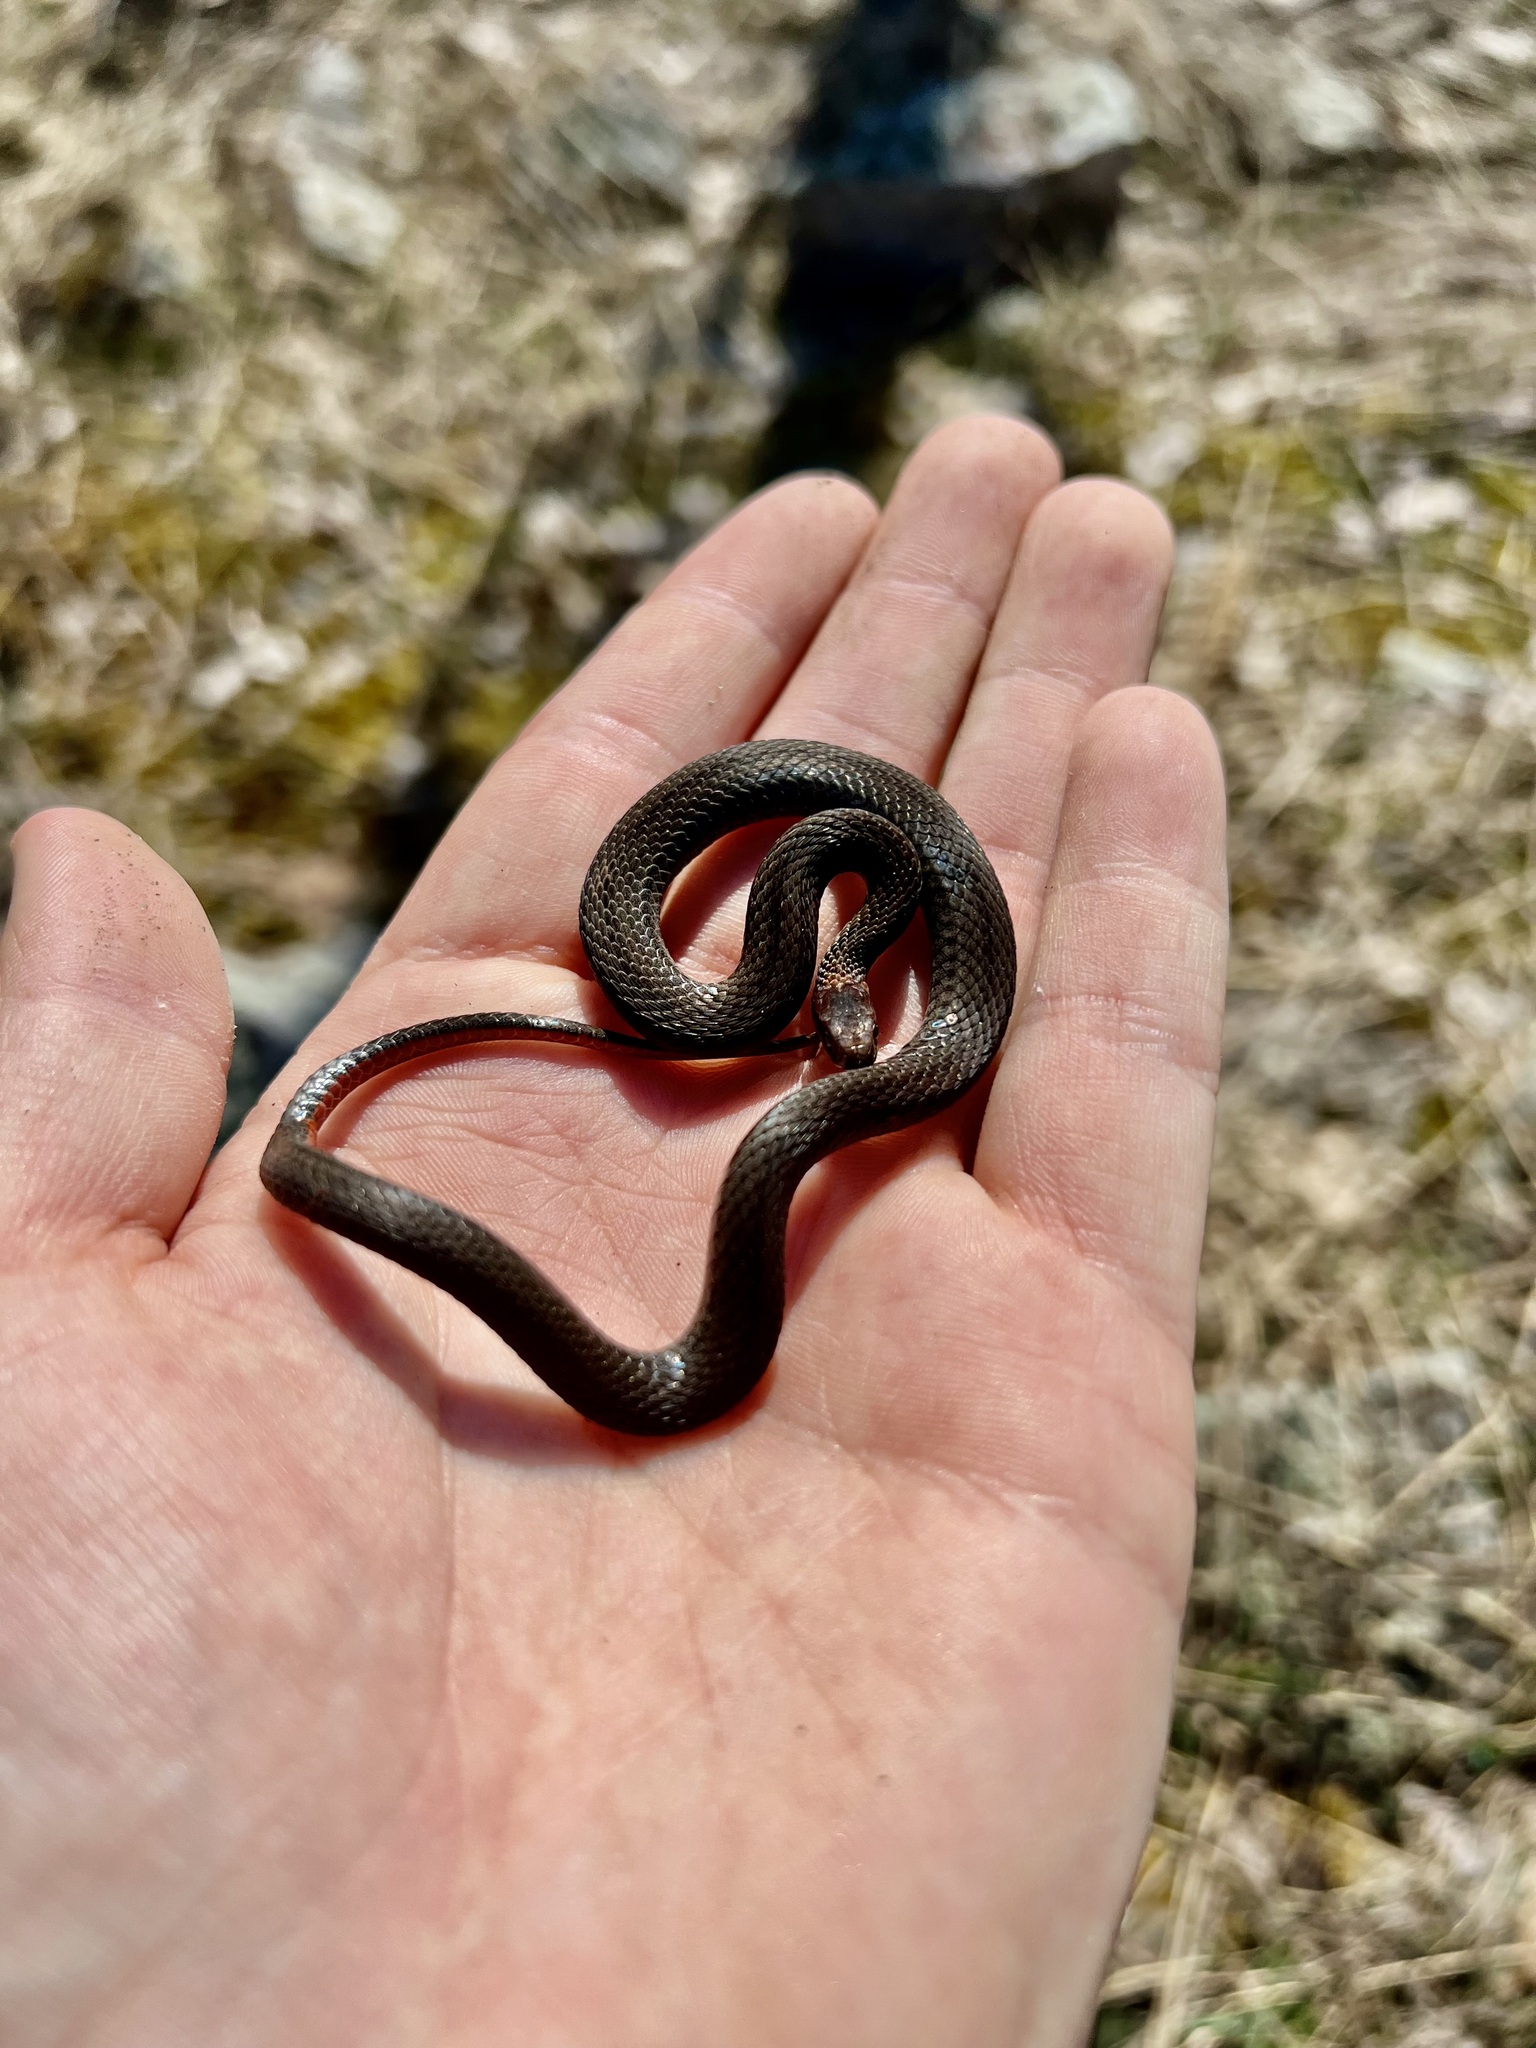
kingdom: Animalia
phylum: Chordata
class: Squamata
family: Colubridae
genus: Storeria
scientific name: Storeria occipitomaculata
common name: Redbelly snake
